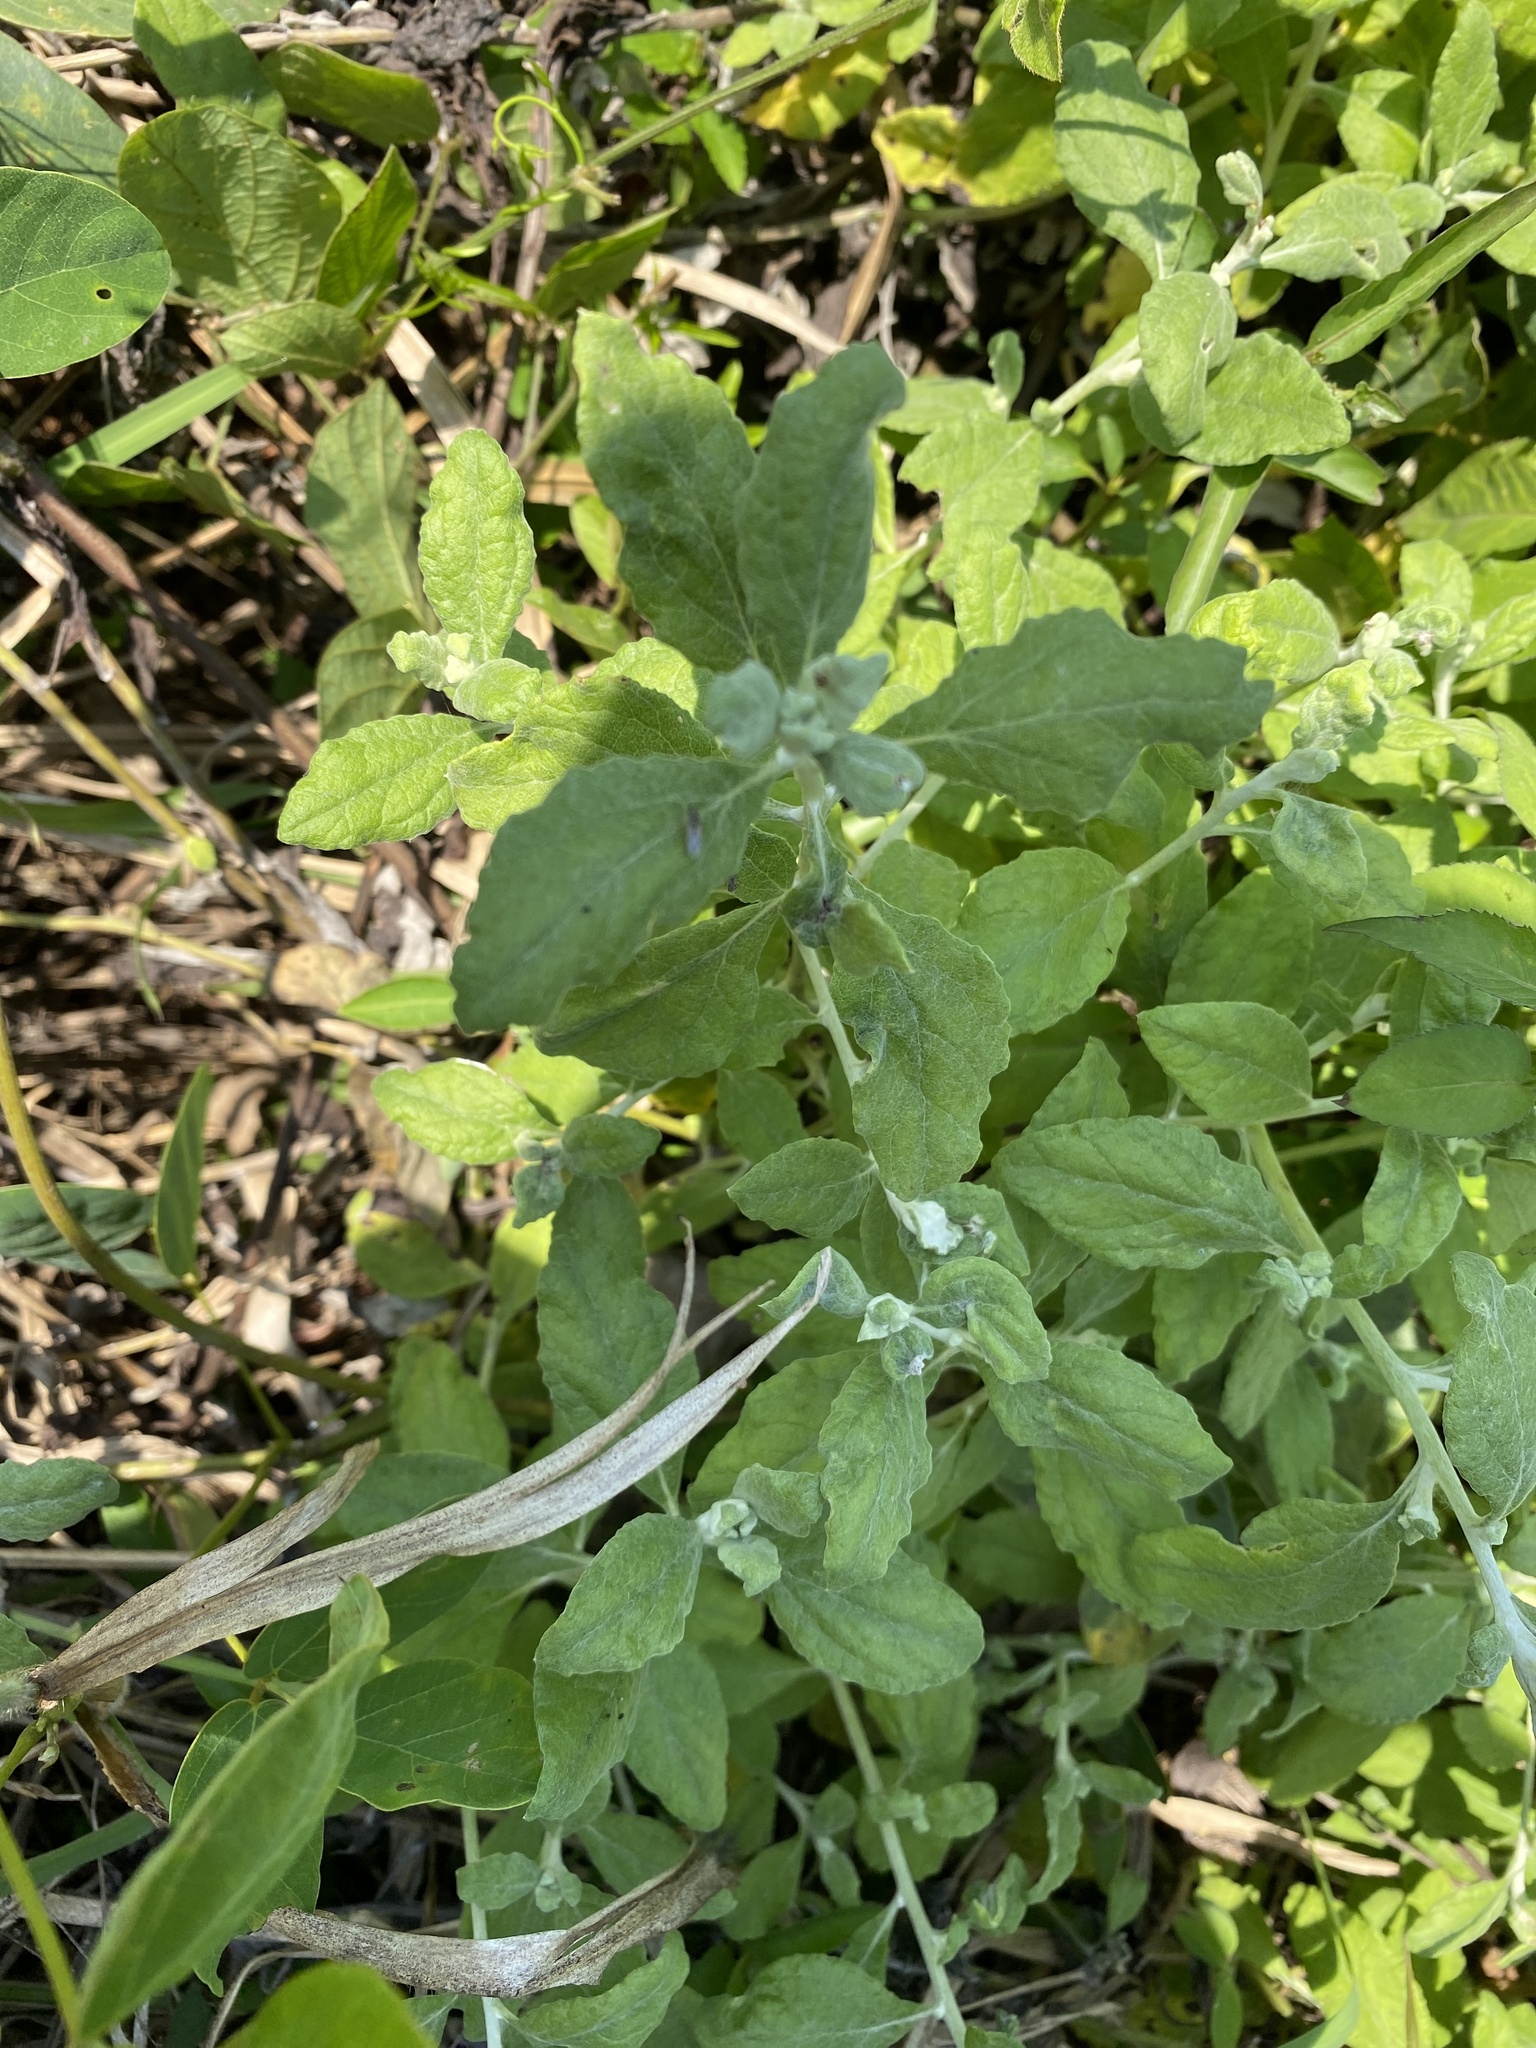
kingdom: Plantae
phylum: Tracheophyta
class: Magnoliopsida
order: Asterales
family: Asteraceae
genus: Helichrysum
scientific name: Helichrysum panduratum
